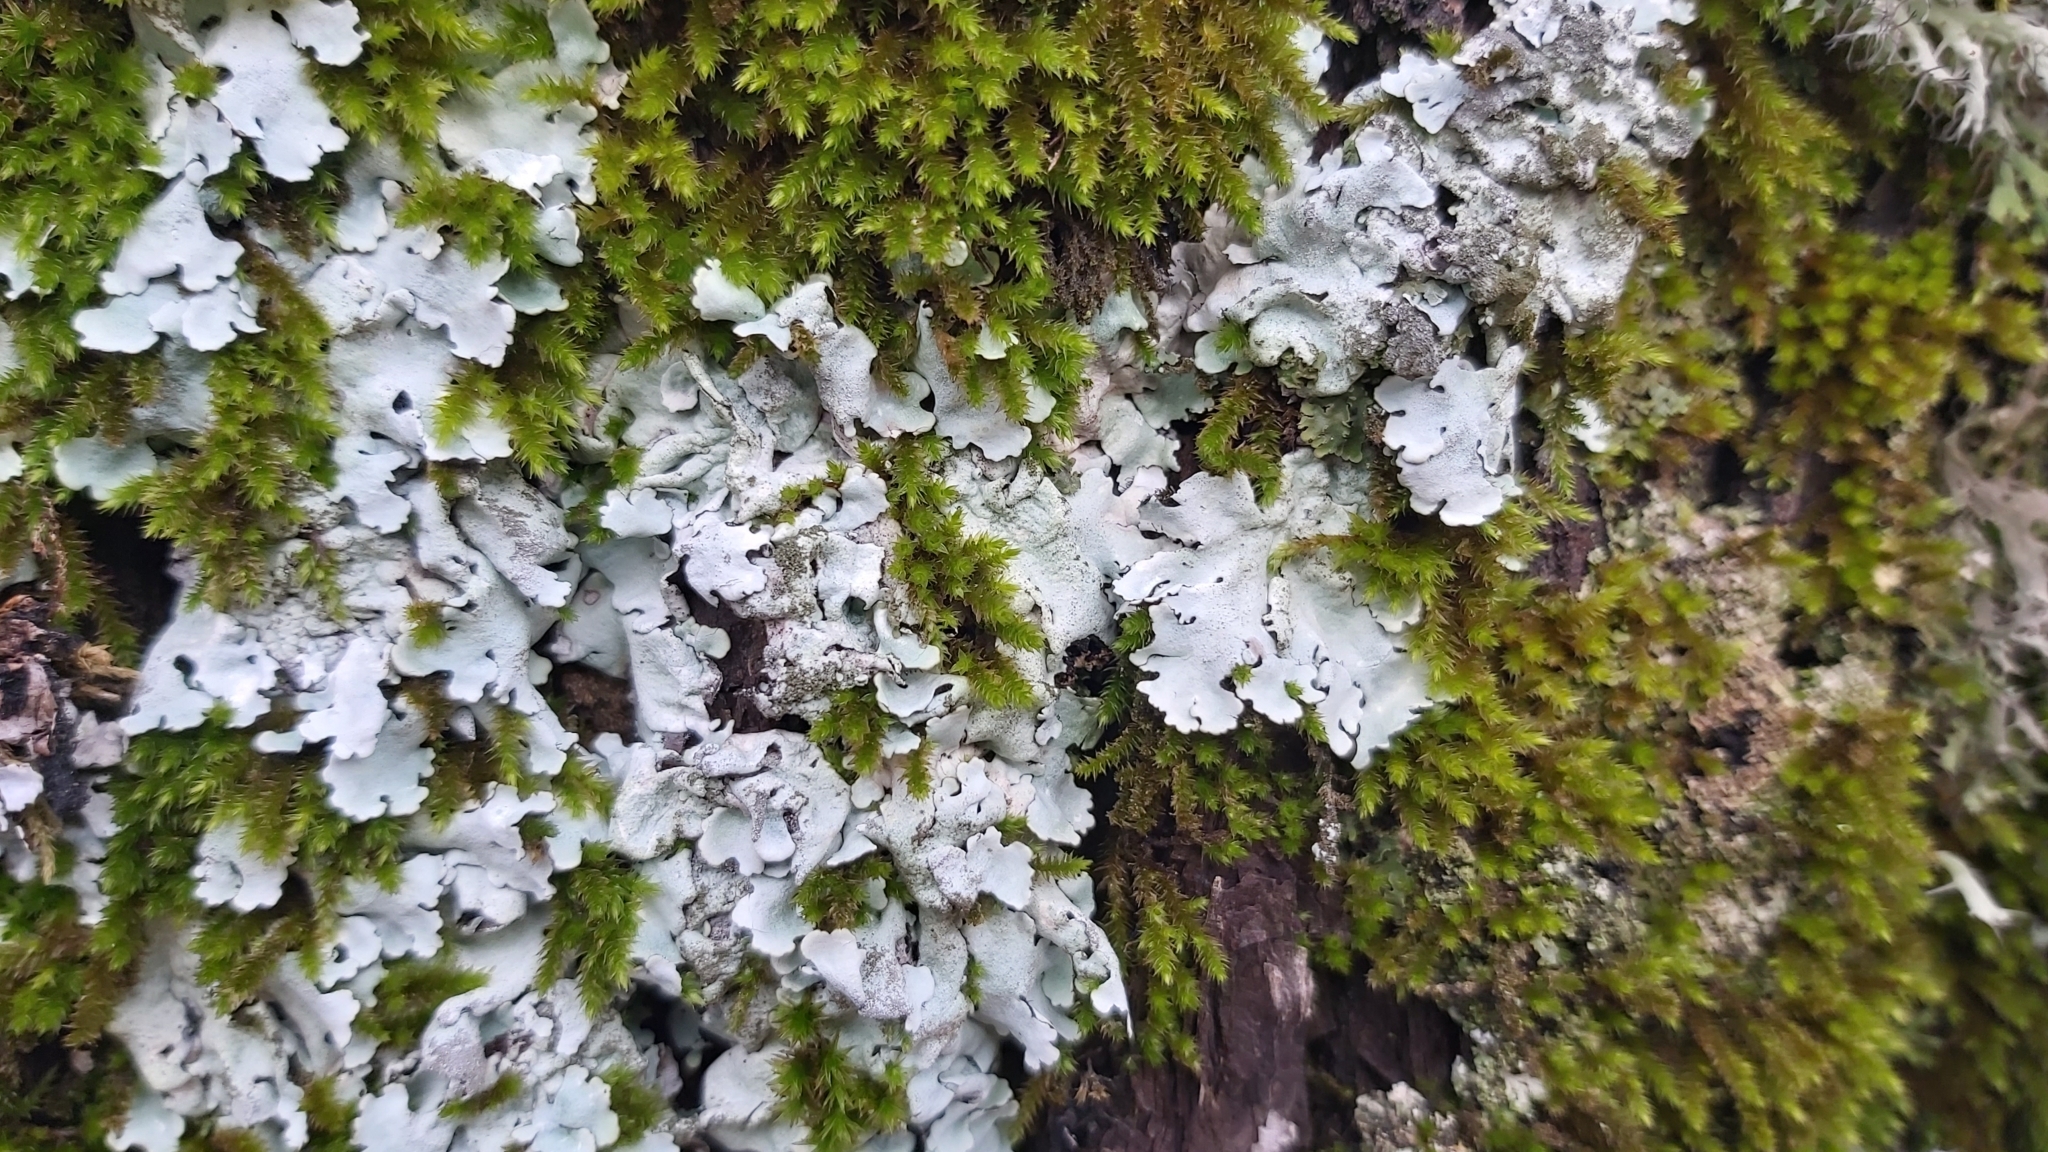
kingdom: Fungi
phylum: Ascomycota
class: Lecanoromycetes
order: Lecanorales
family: Parmeliaceae
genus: Parmelina
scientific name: Parmelina tiliacea
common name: Linden shield lichen
